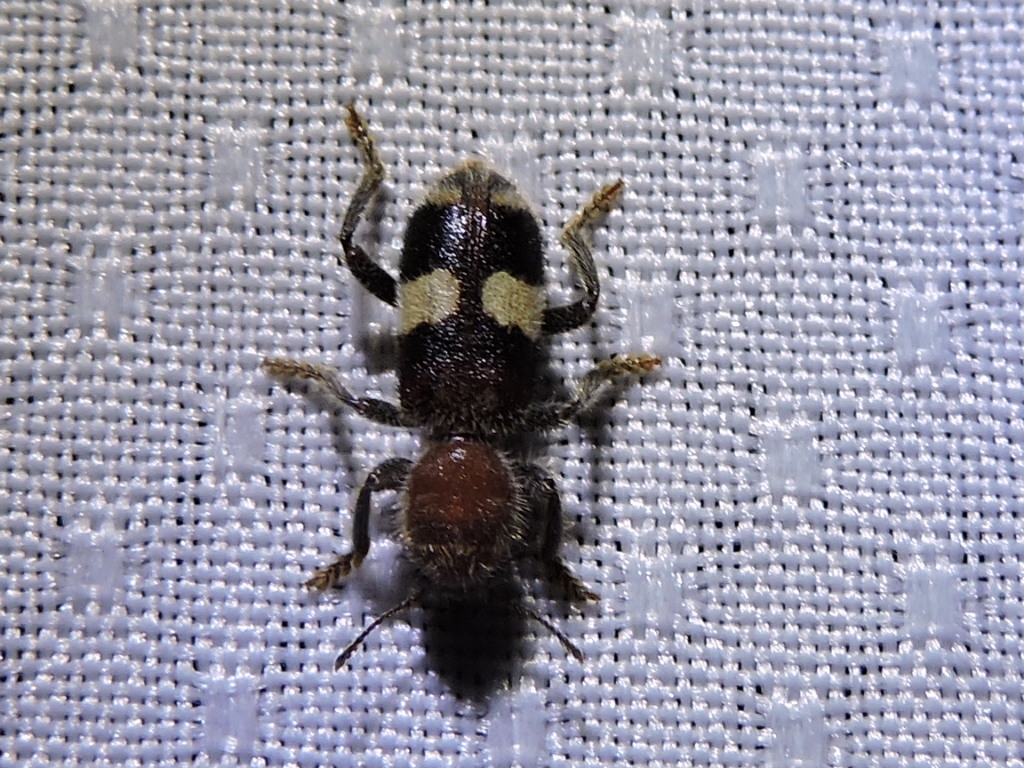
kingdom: Animalia
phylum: Arthropoda
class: Insecta
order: Coleoptera
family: Cleridae
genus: Enoclerus
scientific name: Enoclerus quadrisignatus
